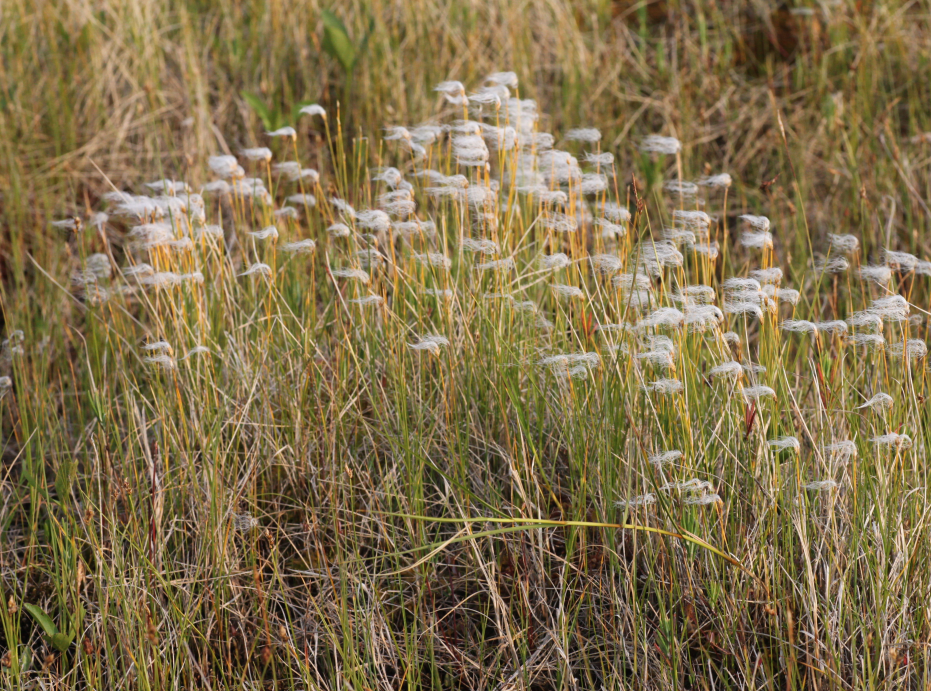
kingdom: Plantae
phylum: Tracheophyta
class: Liliopsida
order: Poales
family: Cyperaceae
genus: Trichophorum
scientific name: Trichophorum alpinum
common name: Alpine bulrush
